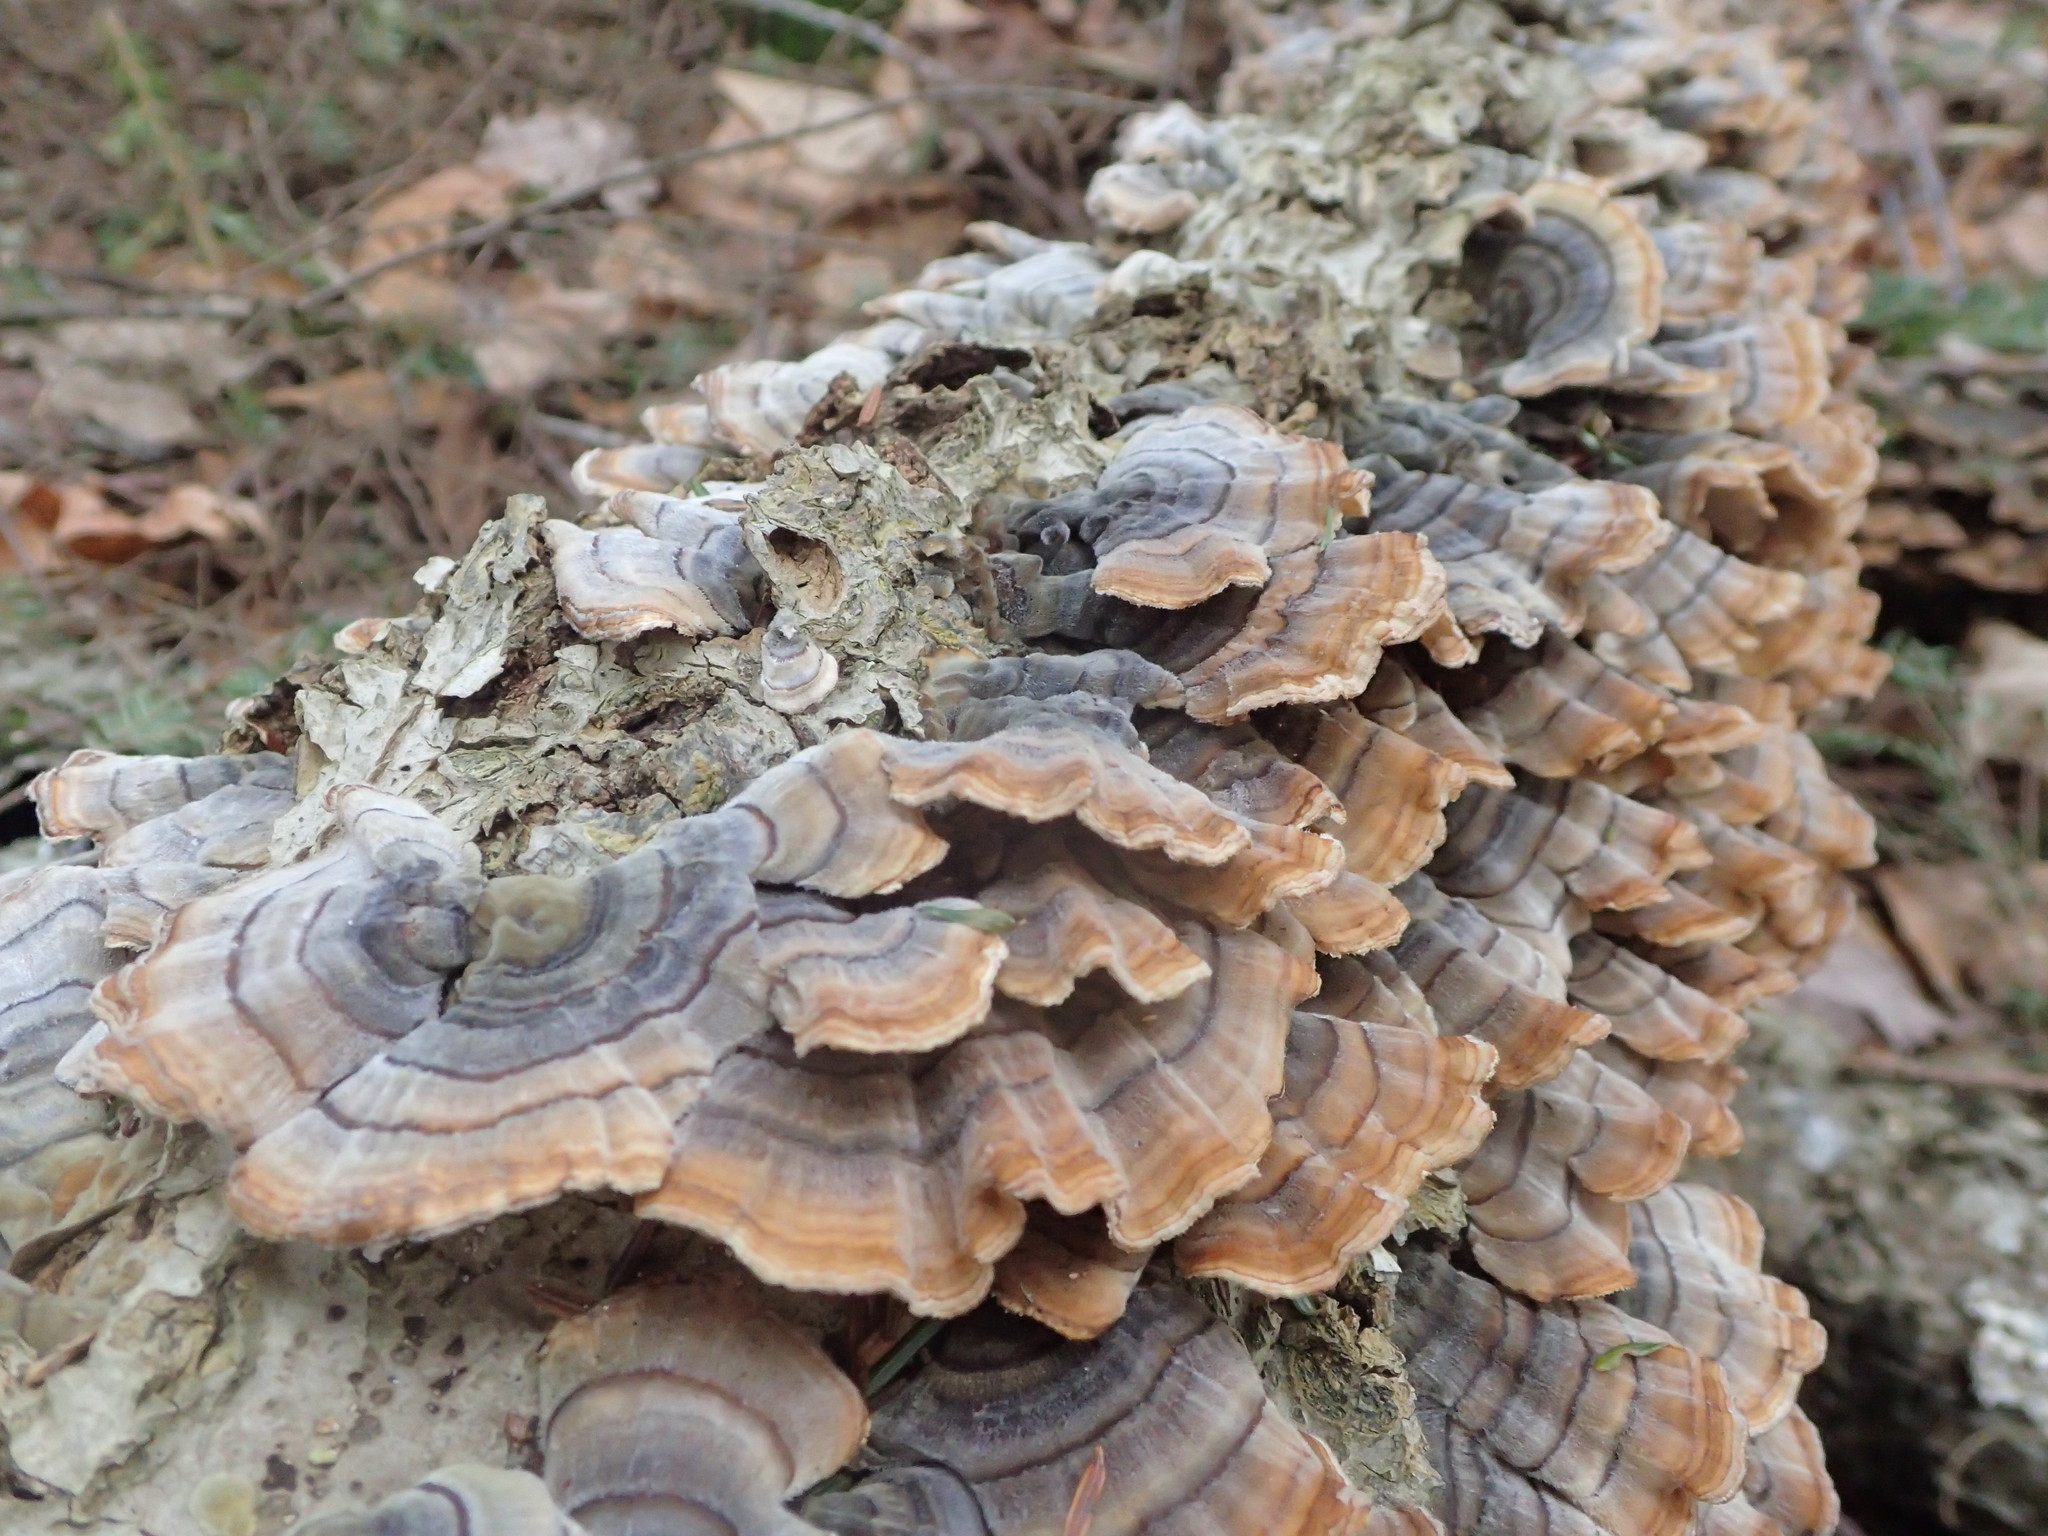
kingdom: Fungi
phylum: Basidiomycota
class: Agaricomycetes
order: Polyporales
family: Polyporaceae
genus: Trametes
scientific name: Trametes versicolor
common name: Turkeytail
